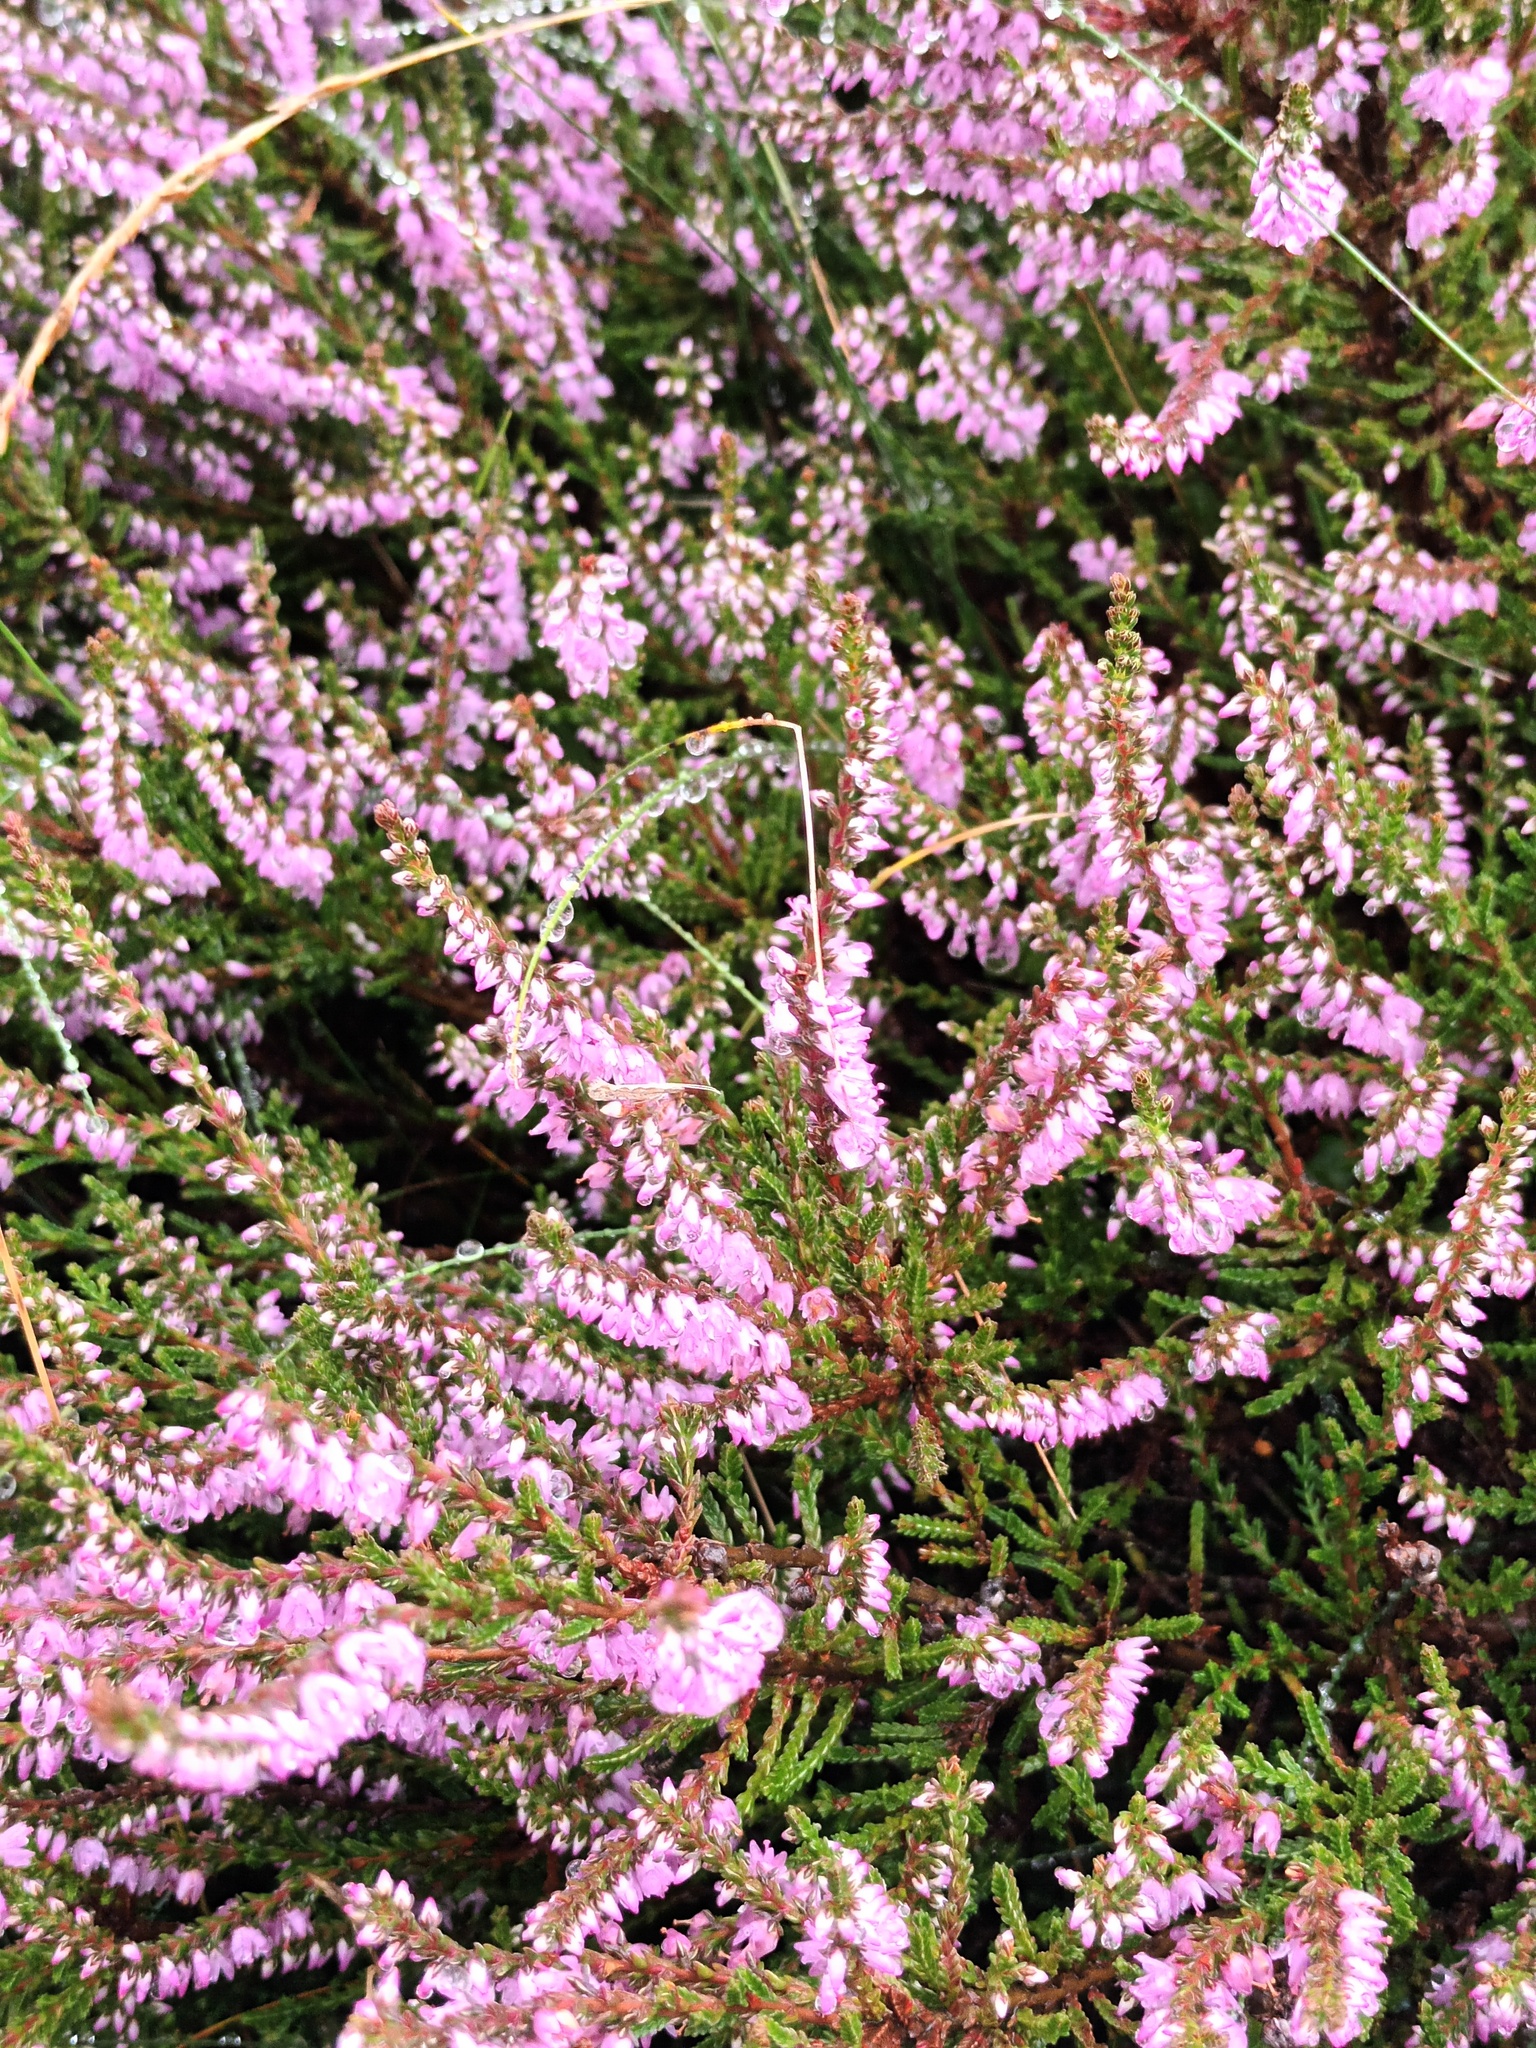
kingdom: Plantae
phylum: Tracheophyta
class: Magnoliopsida
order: Ericales
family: Ericaceae
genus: Calluna
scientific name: Calluna vulgaris
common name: Heather
